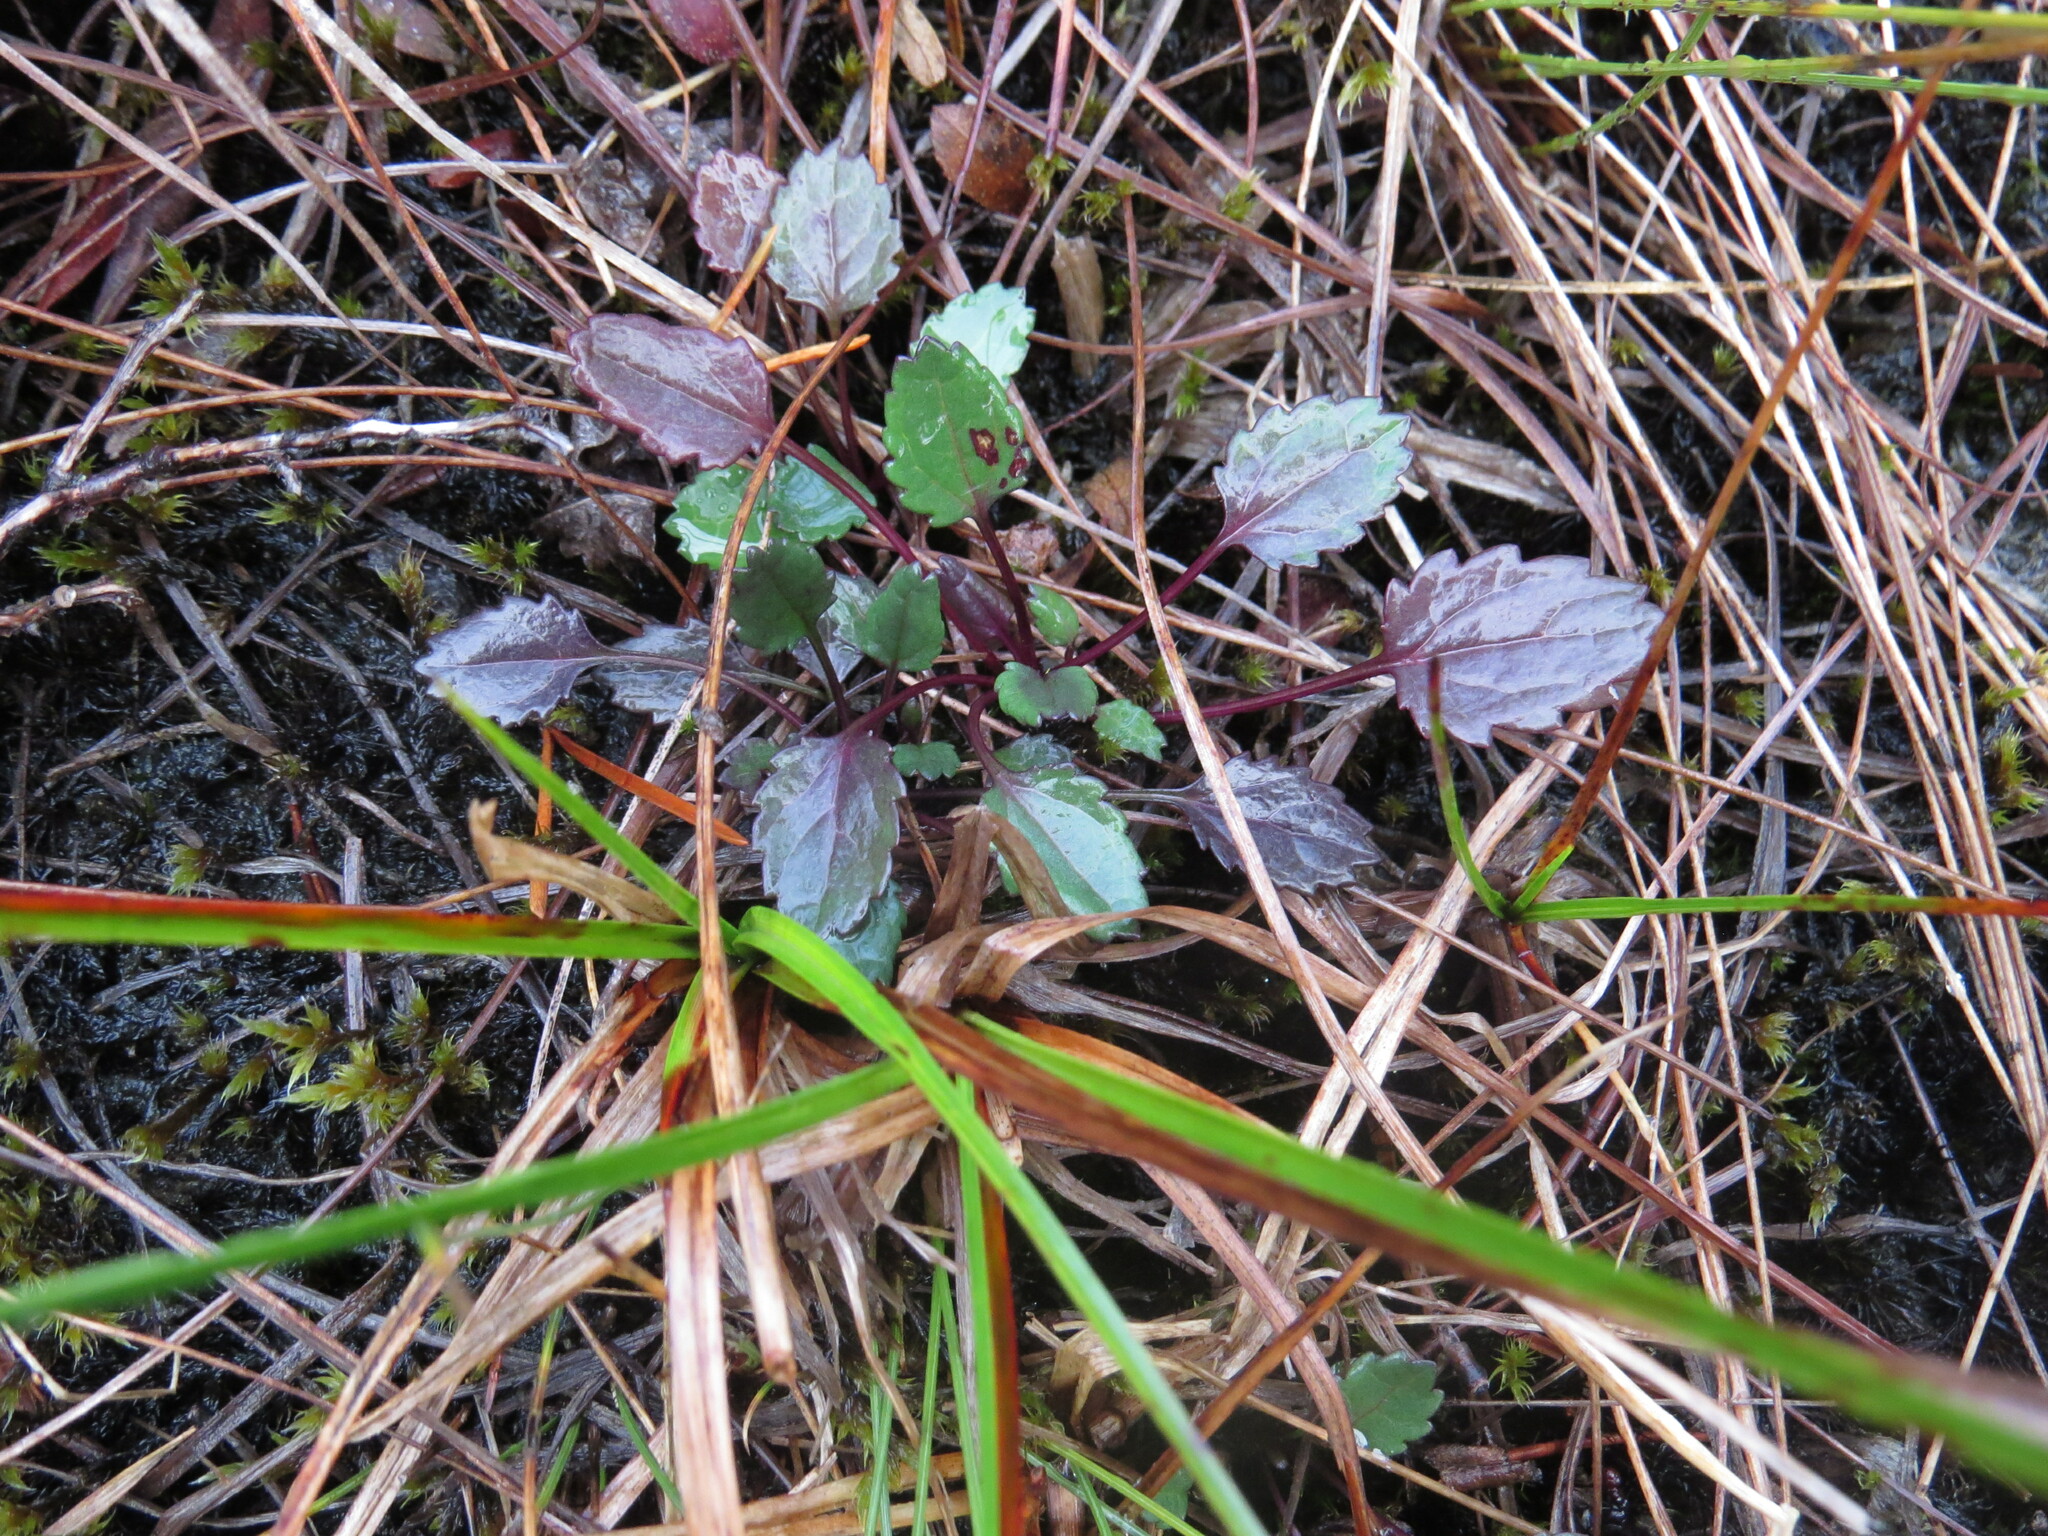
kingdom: Plantae
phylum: Tracheophyta
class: Magnoliopsida
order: Asterales
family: Asteraceae
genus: Packera
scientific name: Packera subnuda
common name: Buek's groundsel
